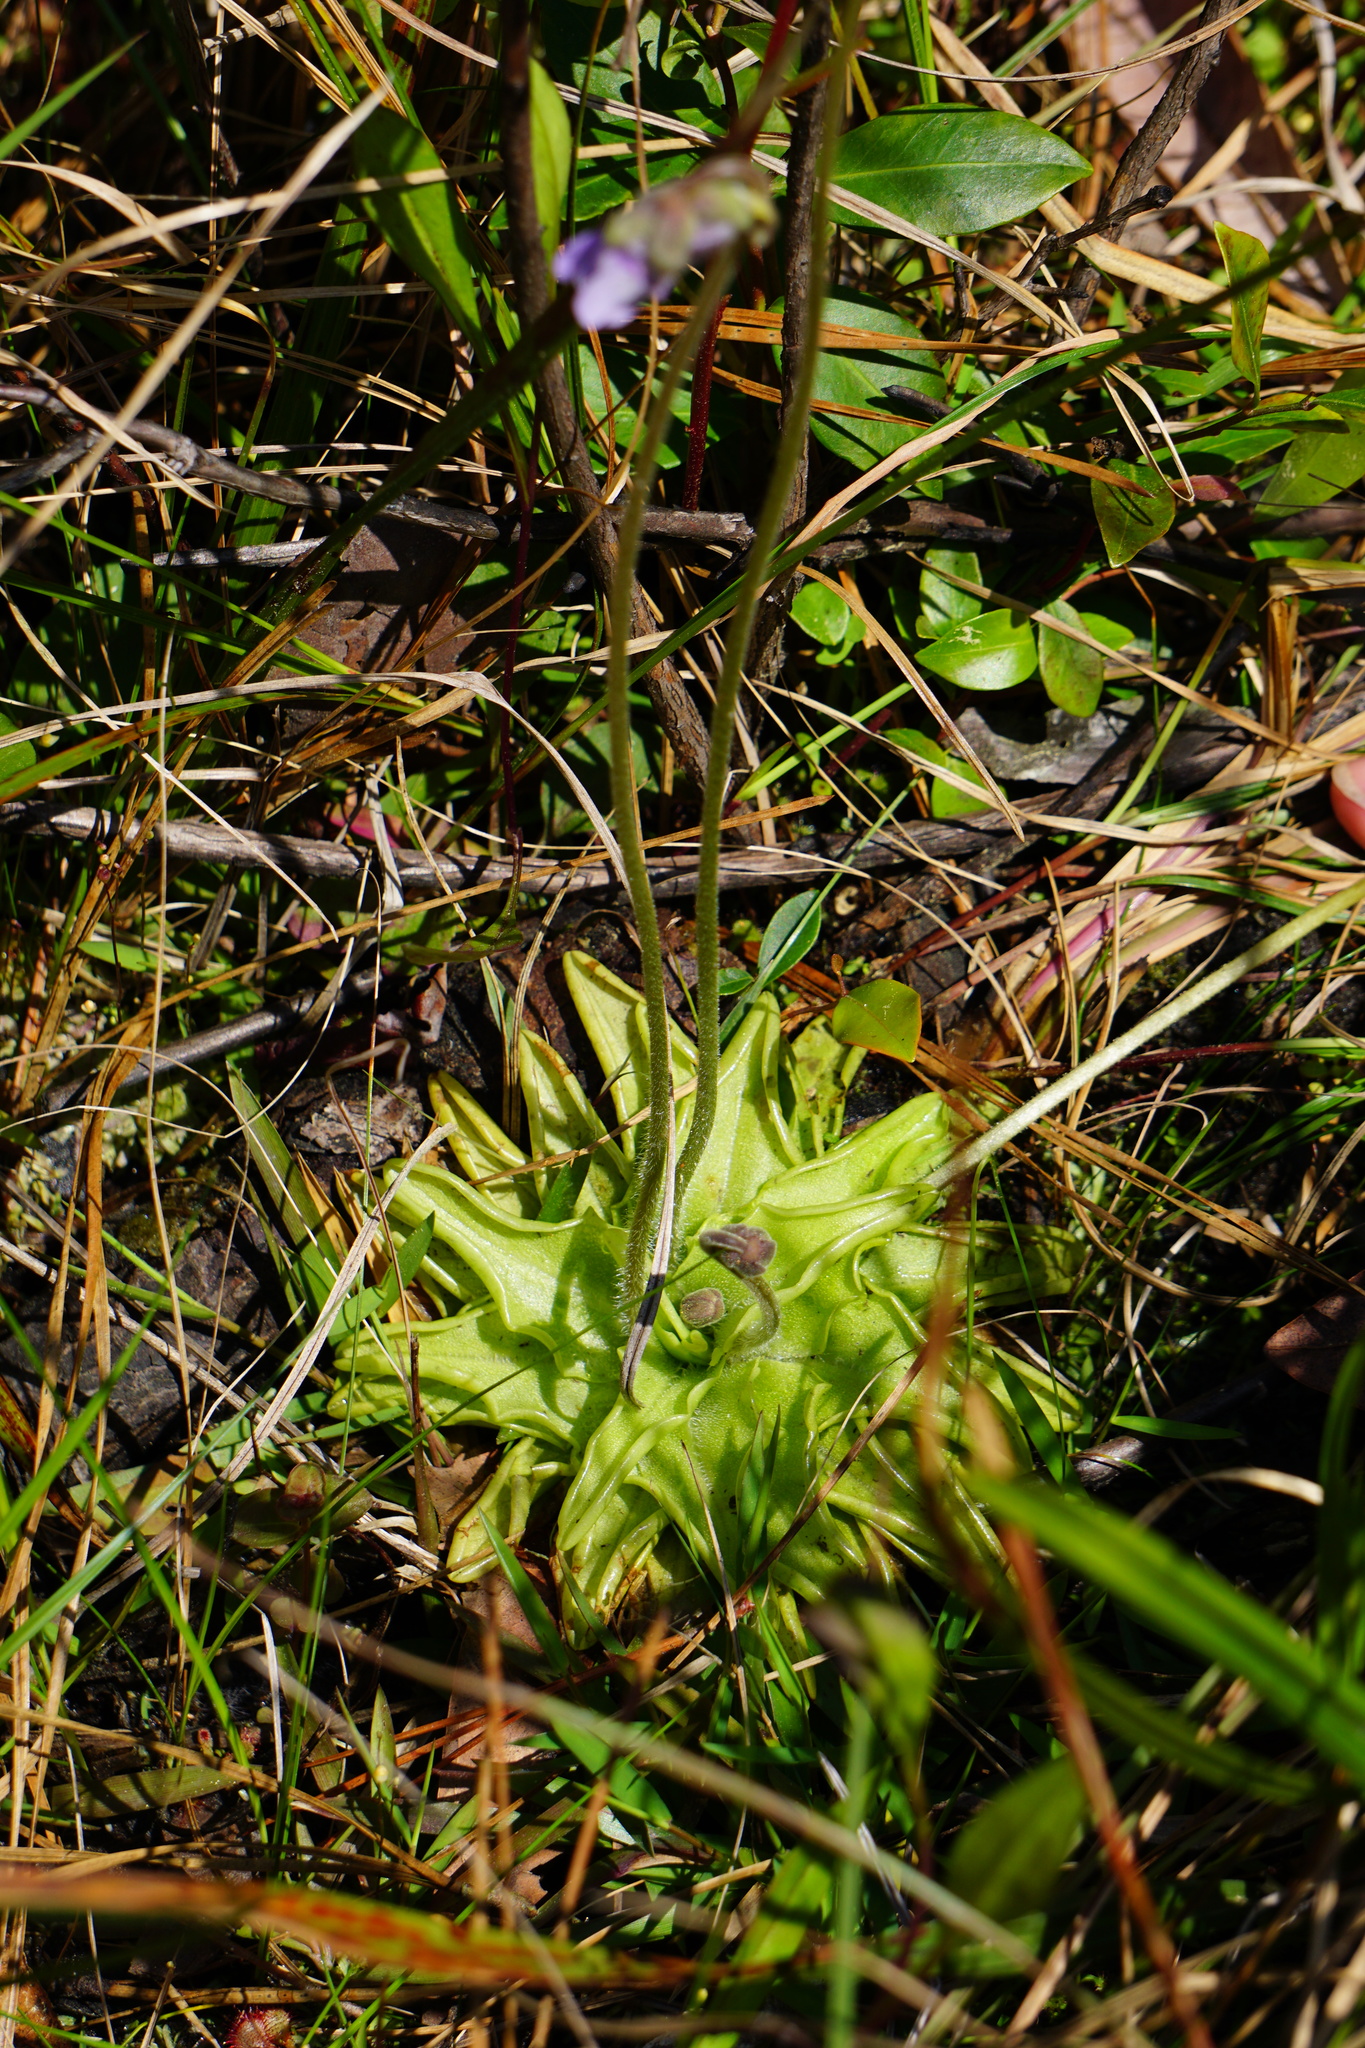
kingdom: Plantae
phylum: Tracheophyta
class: Magnoliopsida
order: Lamiales
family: Lentibulariaceae
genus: Pinguicula
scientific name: Pinguicula caerulea
